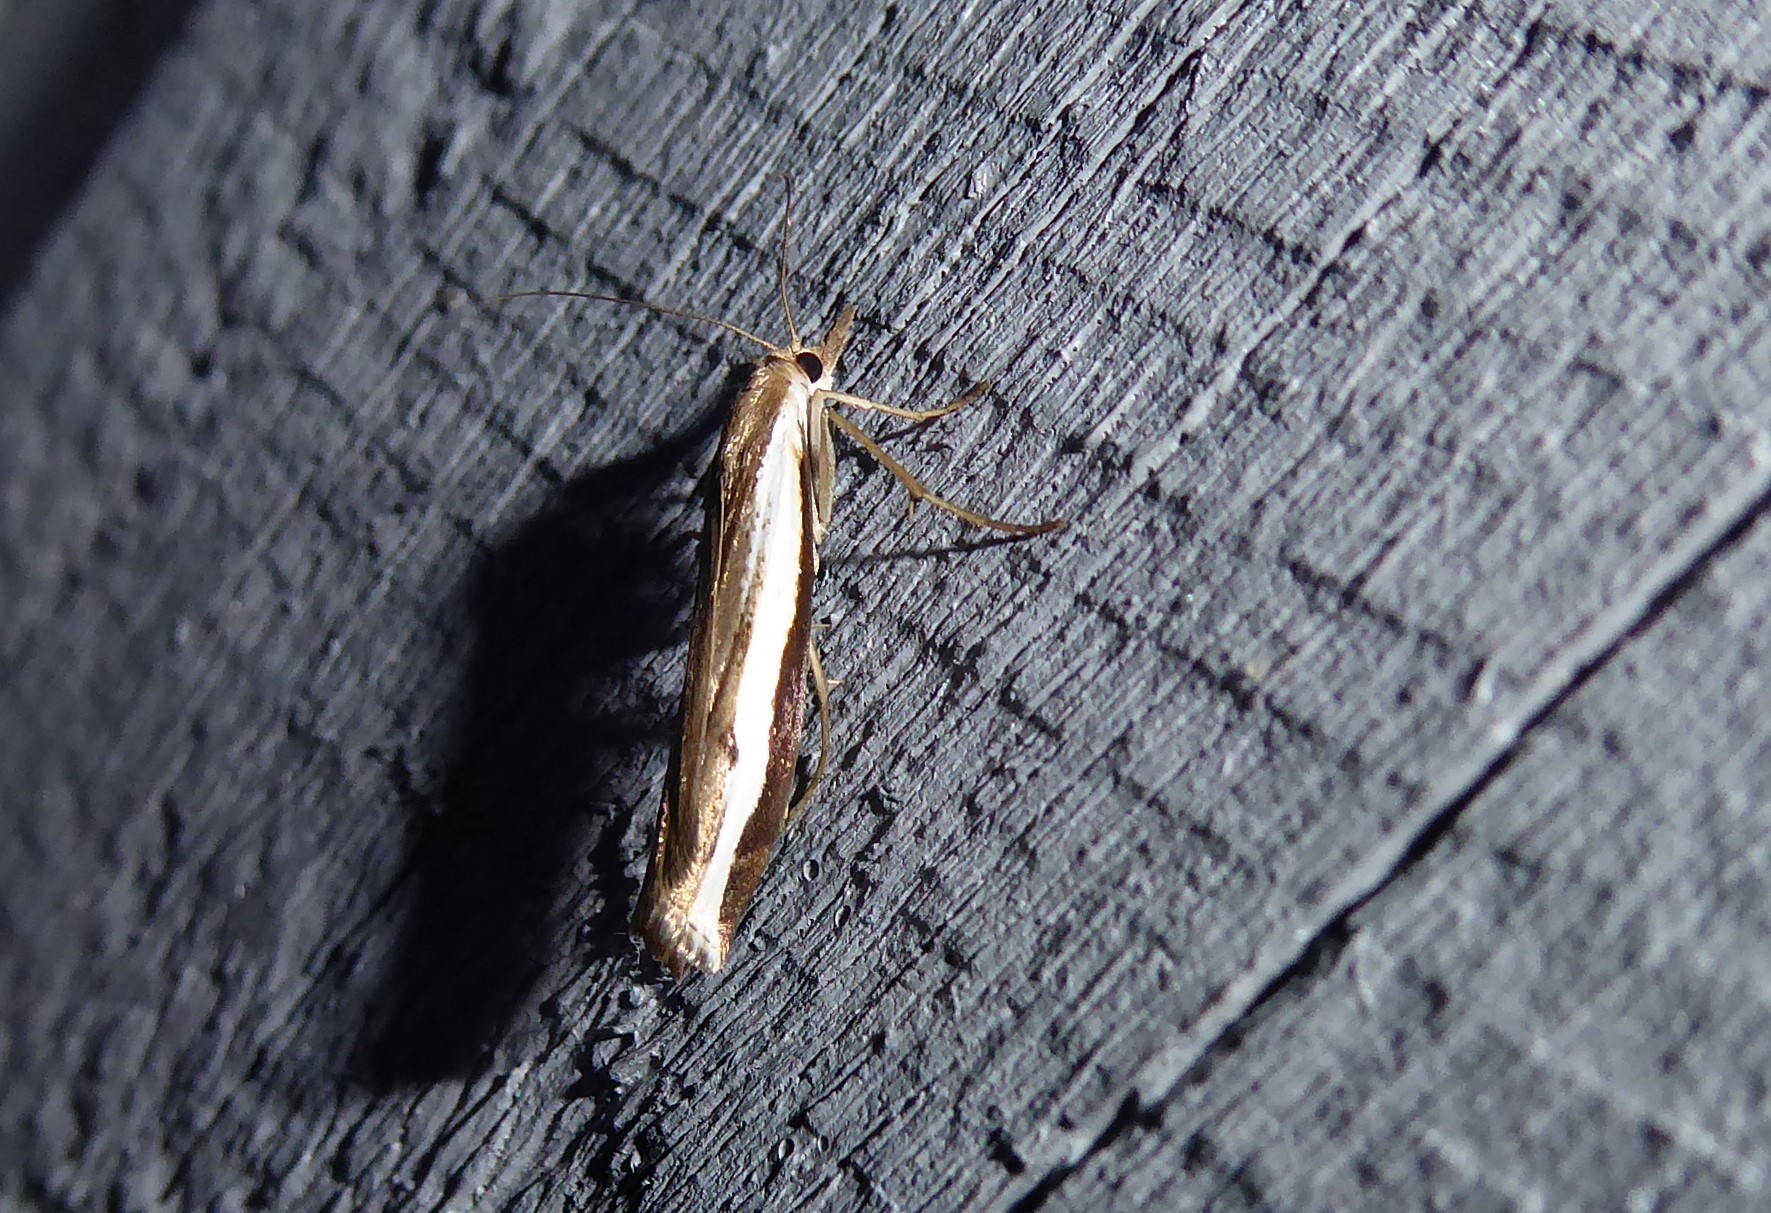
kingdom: Animalia
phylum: Arthropoda
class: Insecta
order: Lepidoptera
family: Crambidae
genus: Orocrambus
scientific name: Orocrambus flexuosellus
